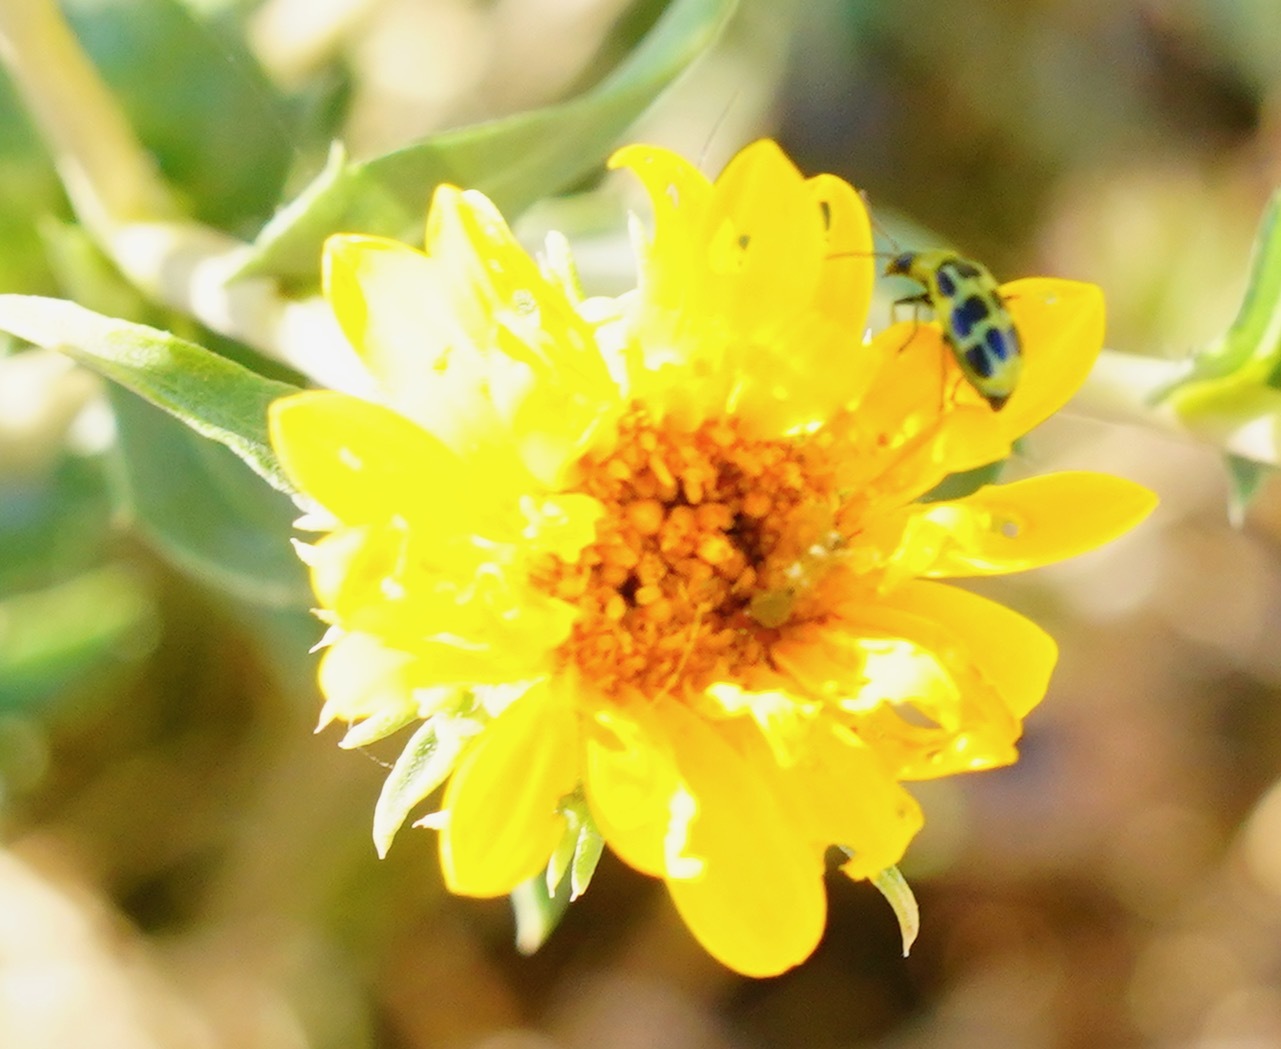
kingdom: Animalia
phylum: Arthropoda
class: Insecta
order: Coleoptera
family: Chrysomelidae
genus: Diabrotica
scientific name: Diabrotica undecimpunctata
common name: Spotted cucumber beetle
